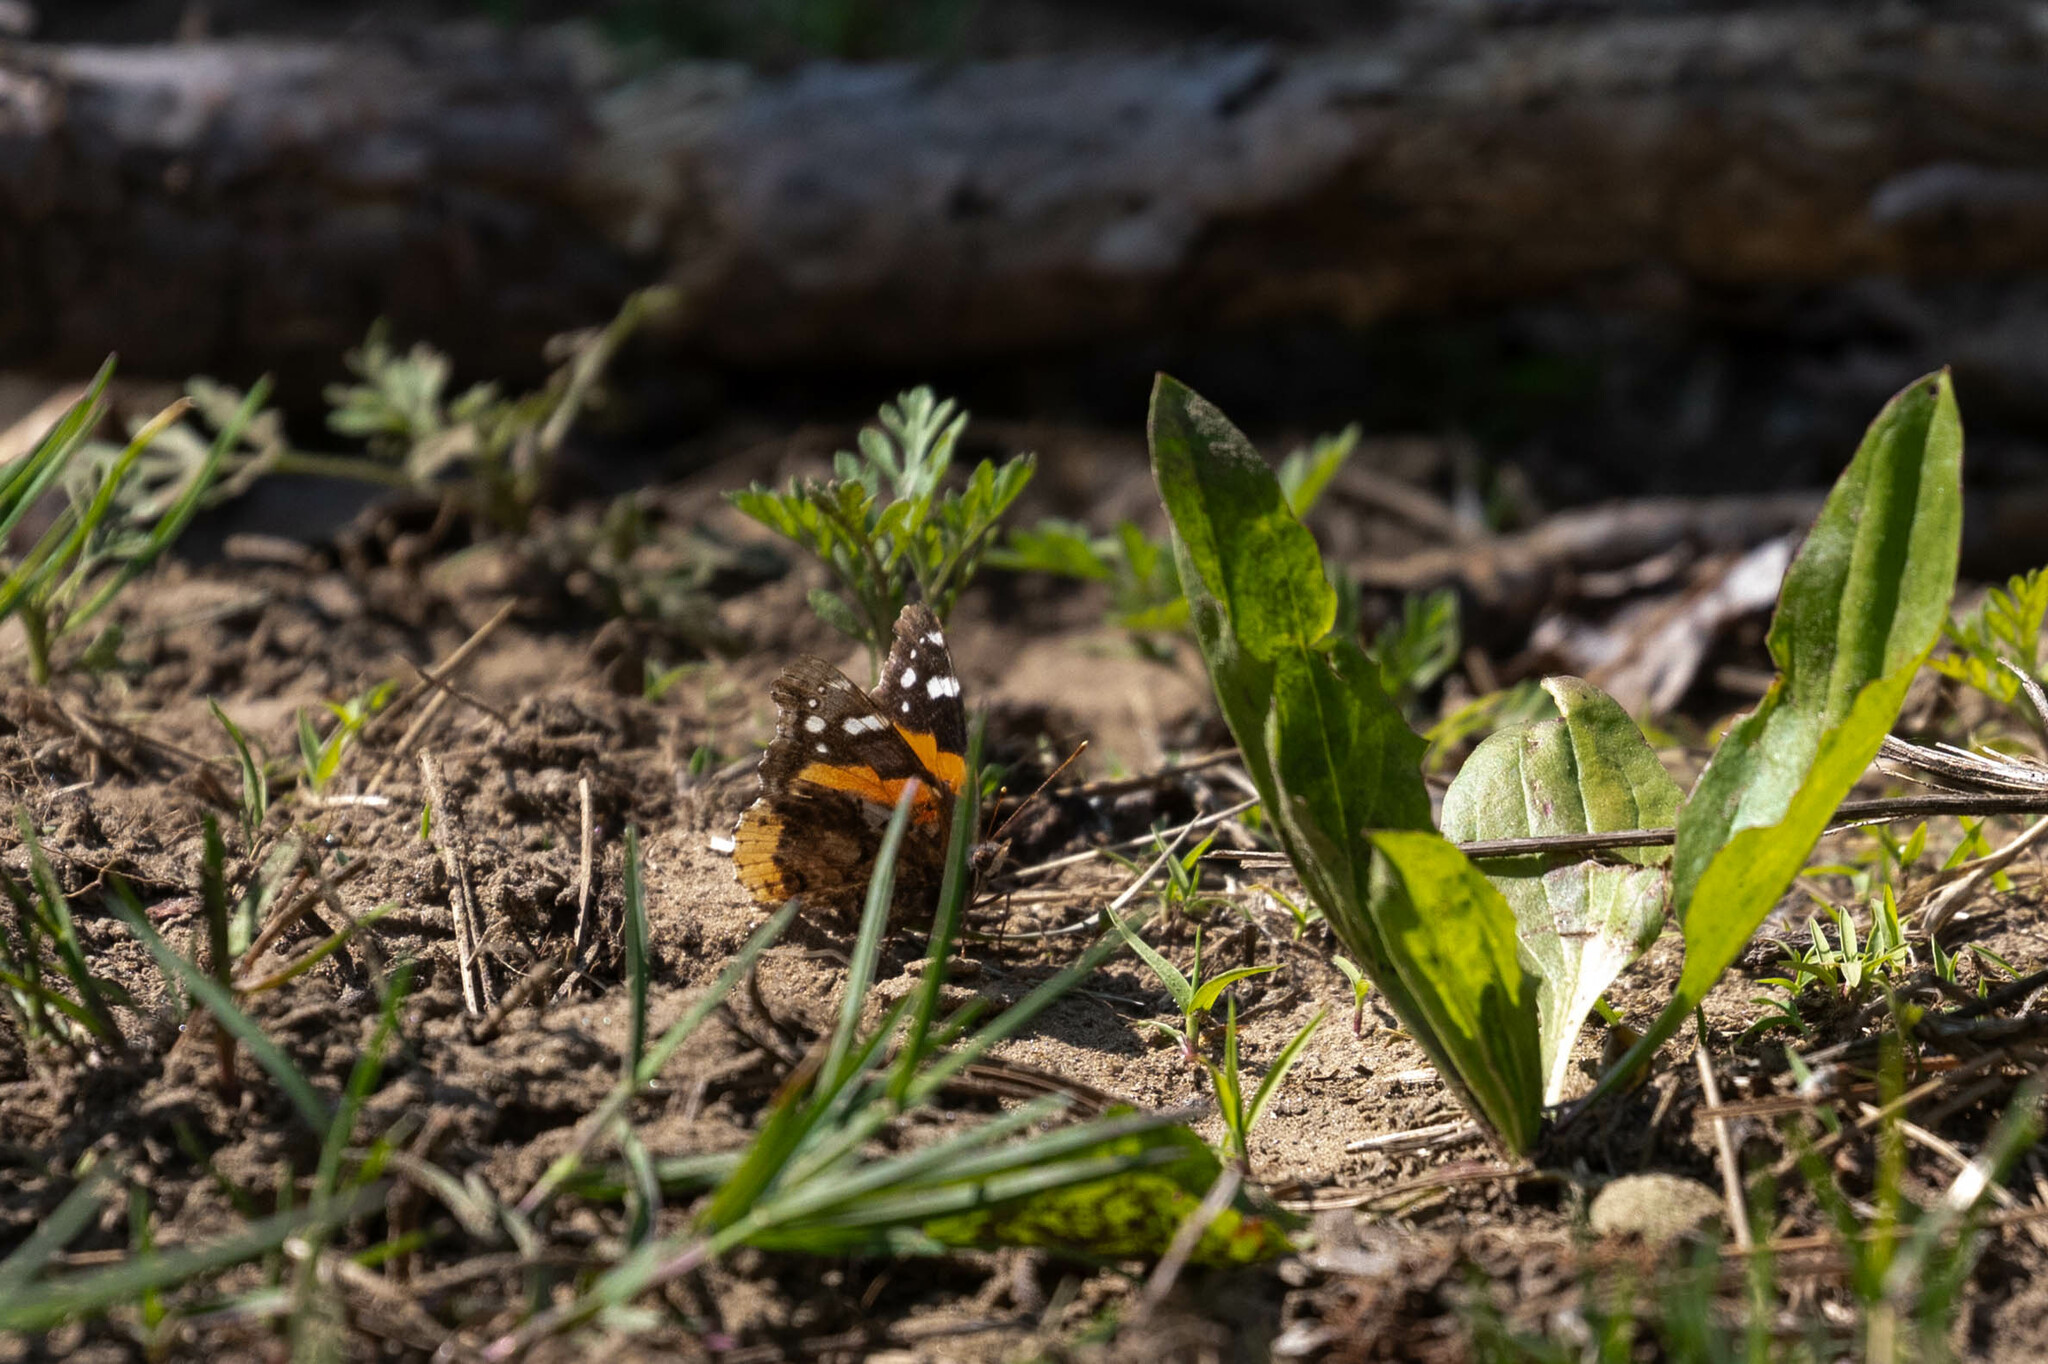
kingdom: Animalia
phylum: Arthropoda
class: Insecta
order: Lepidoptera
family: Nymphalidae
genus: Vanessa
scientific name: Vanessa atalanta
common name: Red admiral
